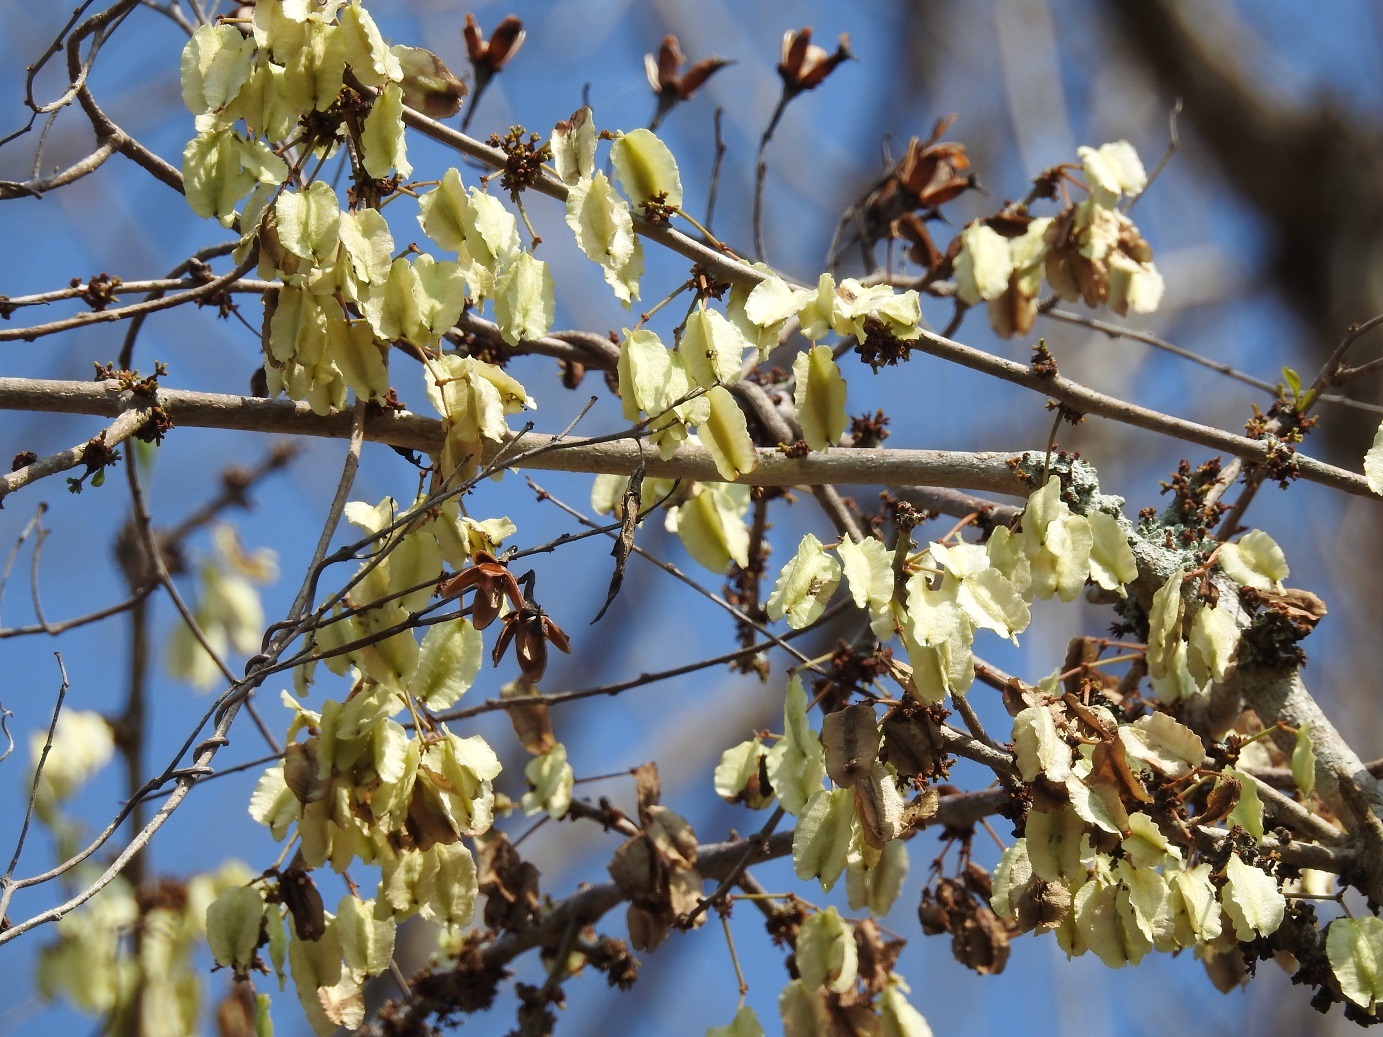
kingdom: Plantae
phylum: Tracheophyta
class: Magnoliopsida
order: Fabales
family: Fabaceae
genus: Piscidia
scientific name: Piscidia carthagenensis
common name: Stinkwood
